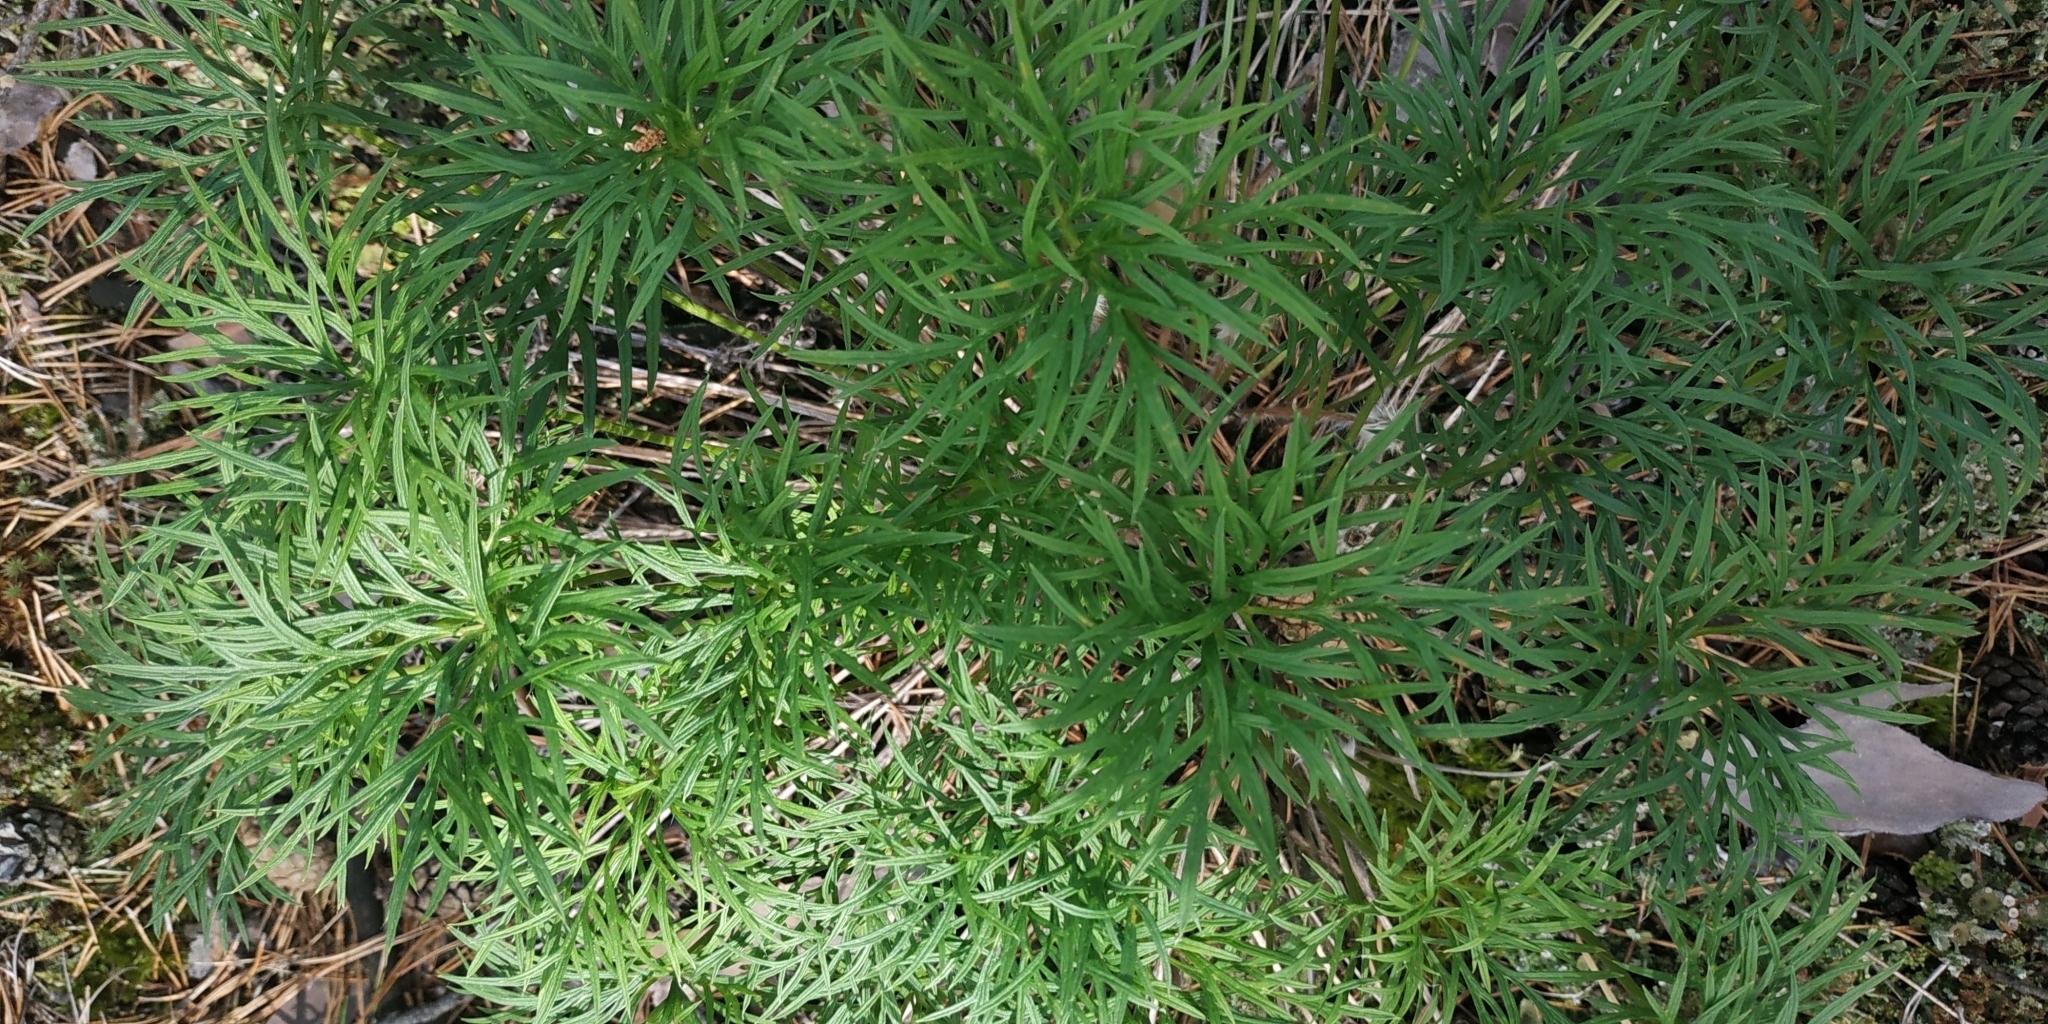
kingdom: Plantae
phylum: Tracheophyta
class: Magnoliopsida
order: Ranunculales
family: Ranunculaceae
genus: Pulsatilla
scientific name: Pulsatilla patens
